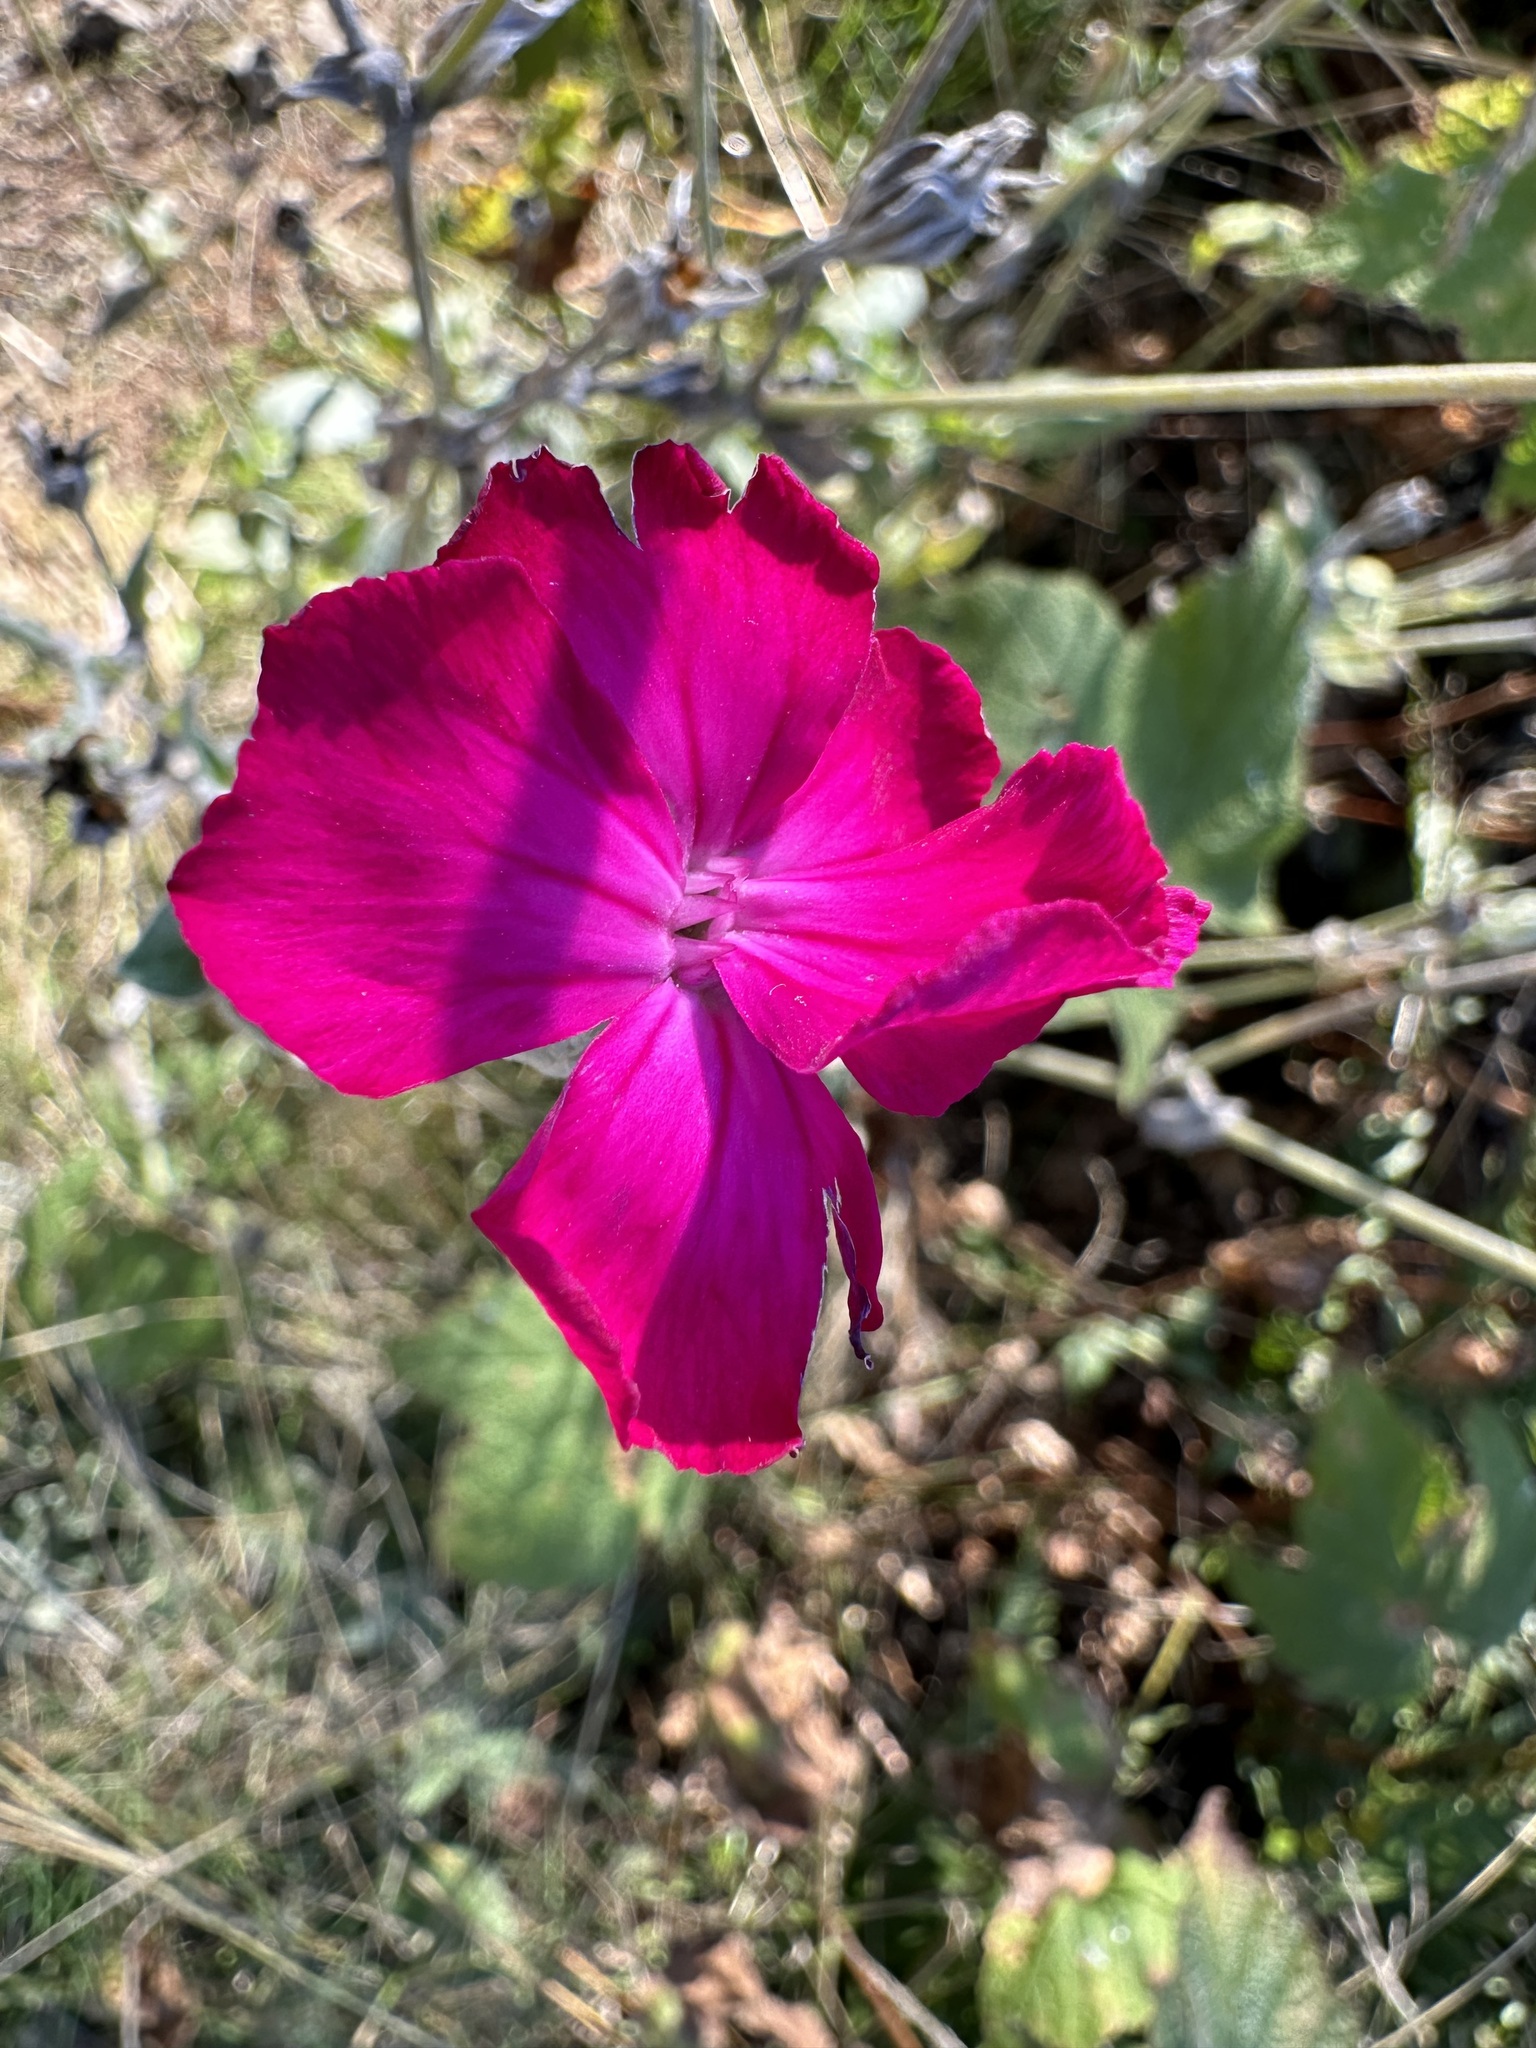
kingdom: Plantae
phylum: Tracheophyta
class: Magnoliopsida
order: Caryophyllales
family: Caryophyllaceae
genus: Silene
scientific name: Silene coronaria
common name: Rose campion
